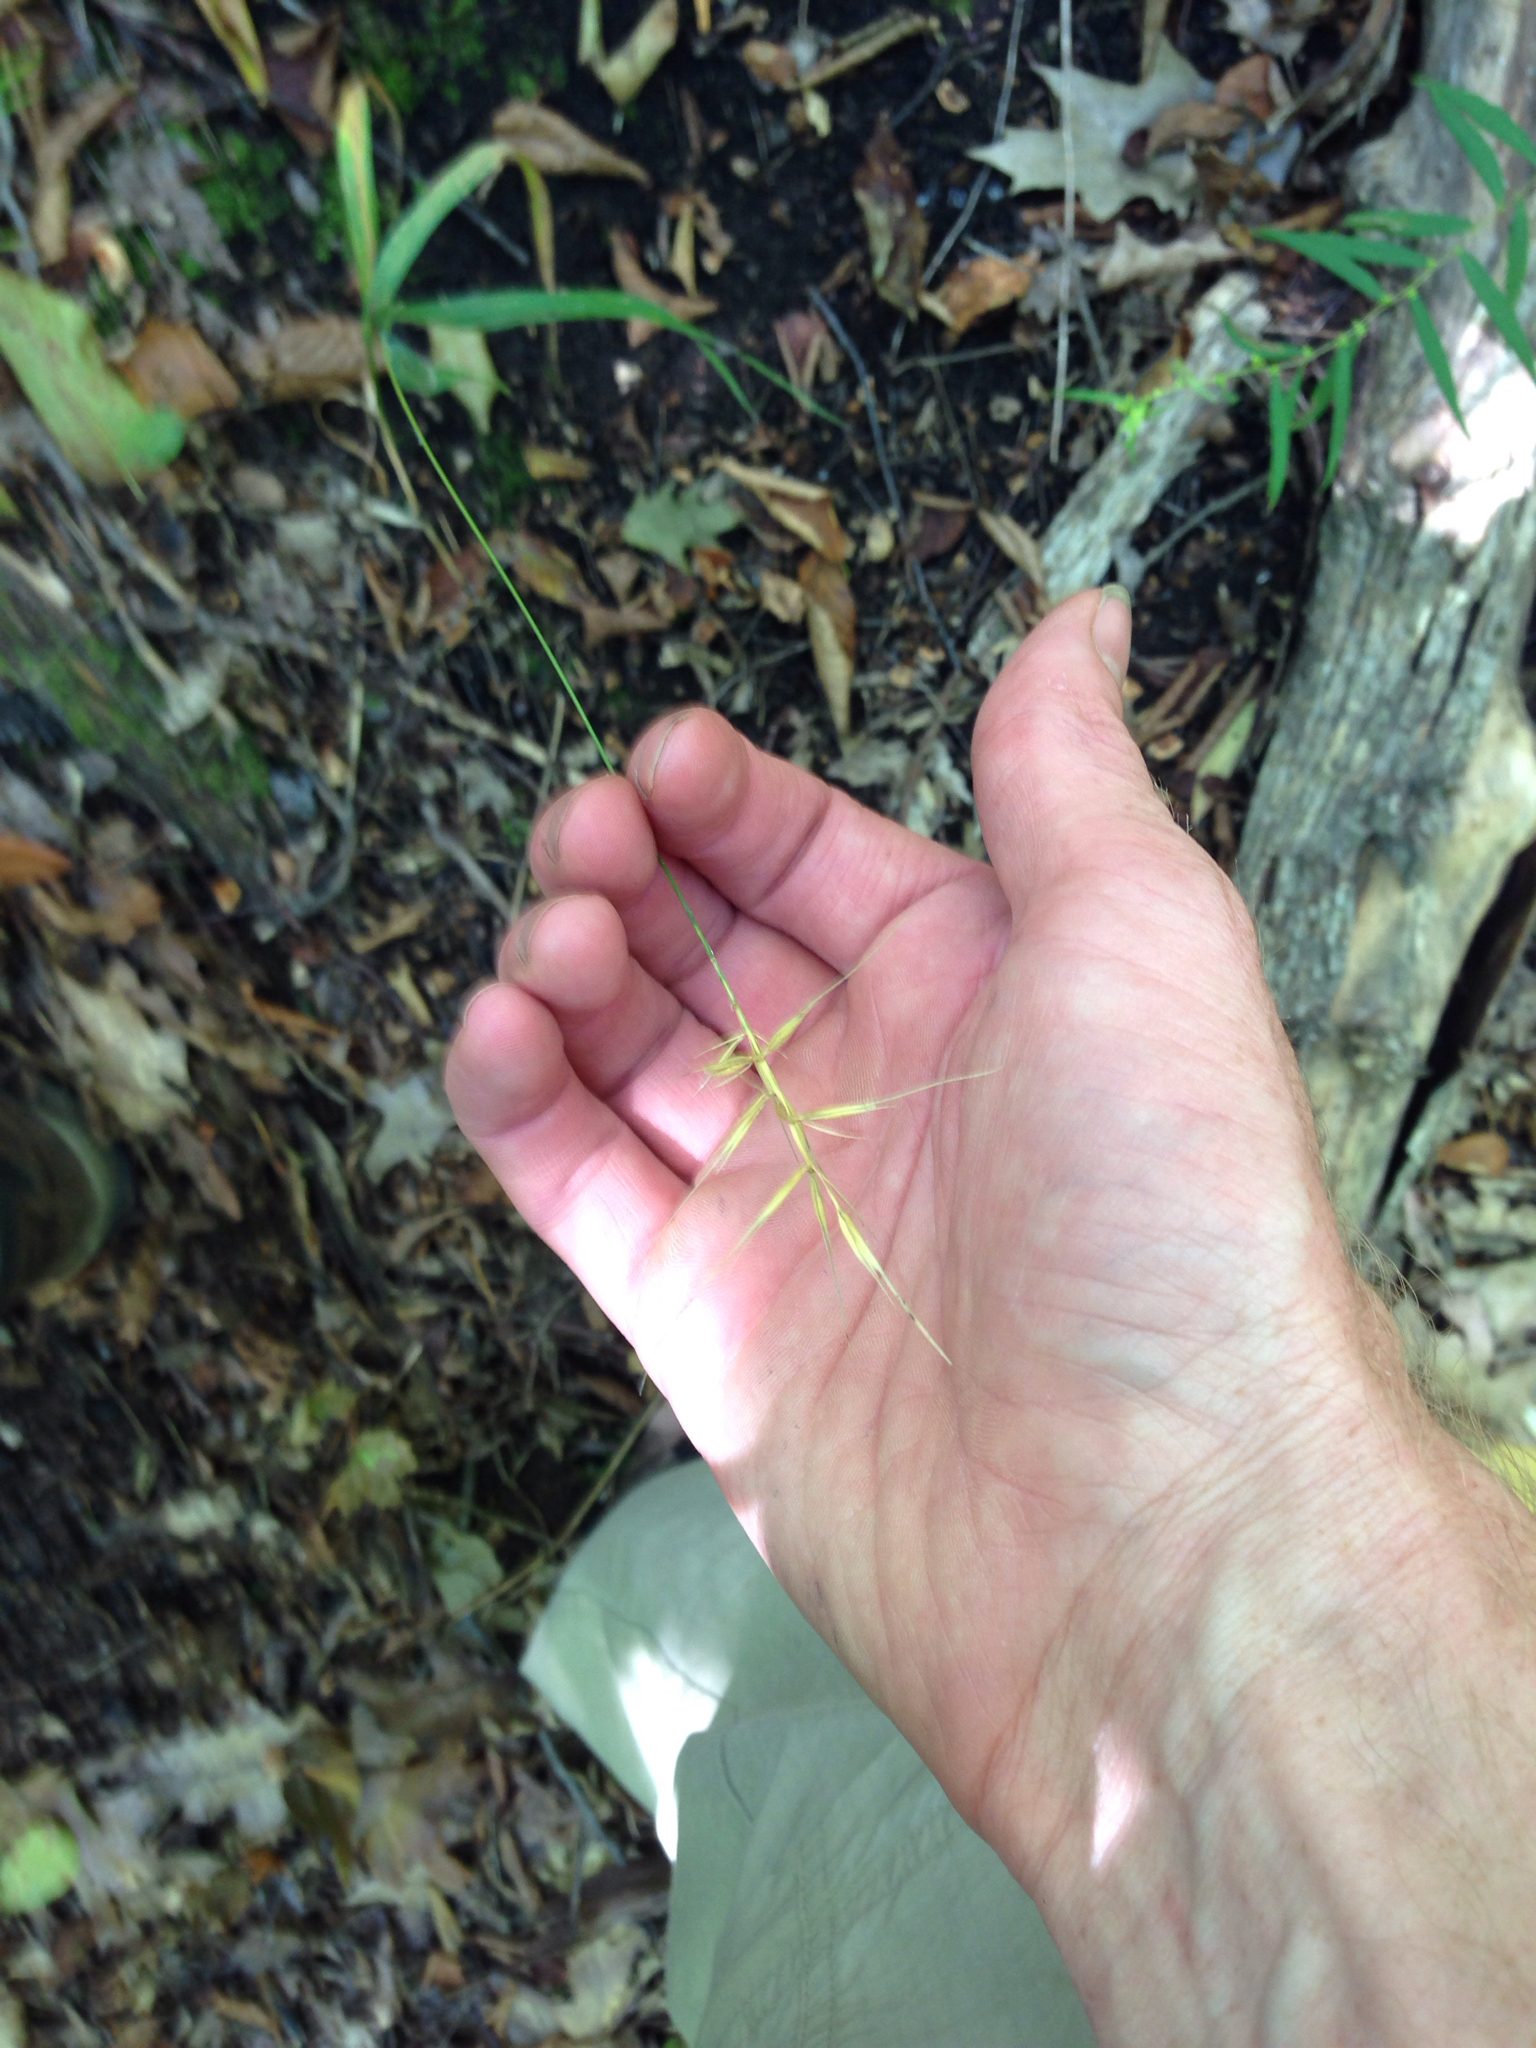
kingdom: Plantae
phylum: Tracheophyta
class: Liliopsida
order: Poales
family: Poaceae
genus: Elymus
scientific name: Elymus hystrix
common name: Bottlebrush grass
